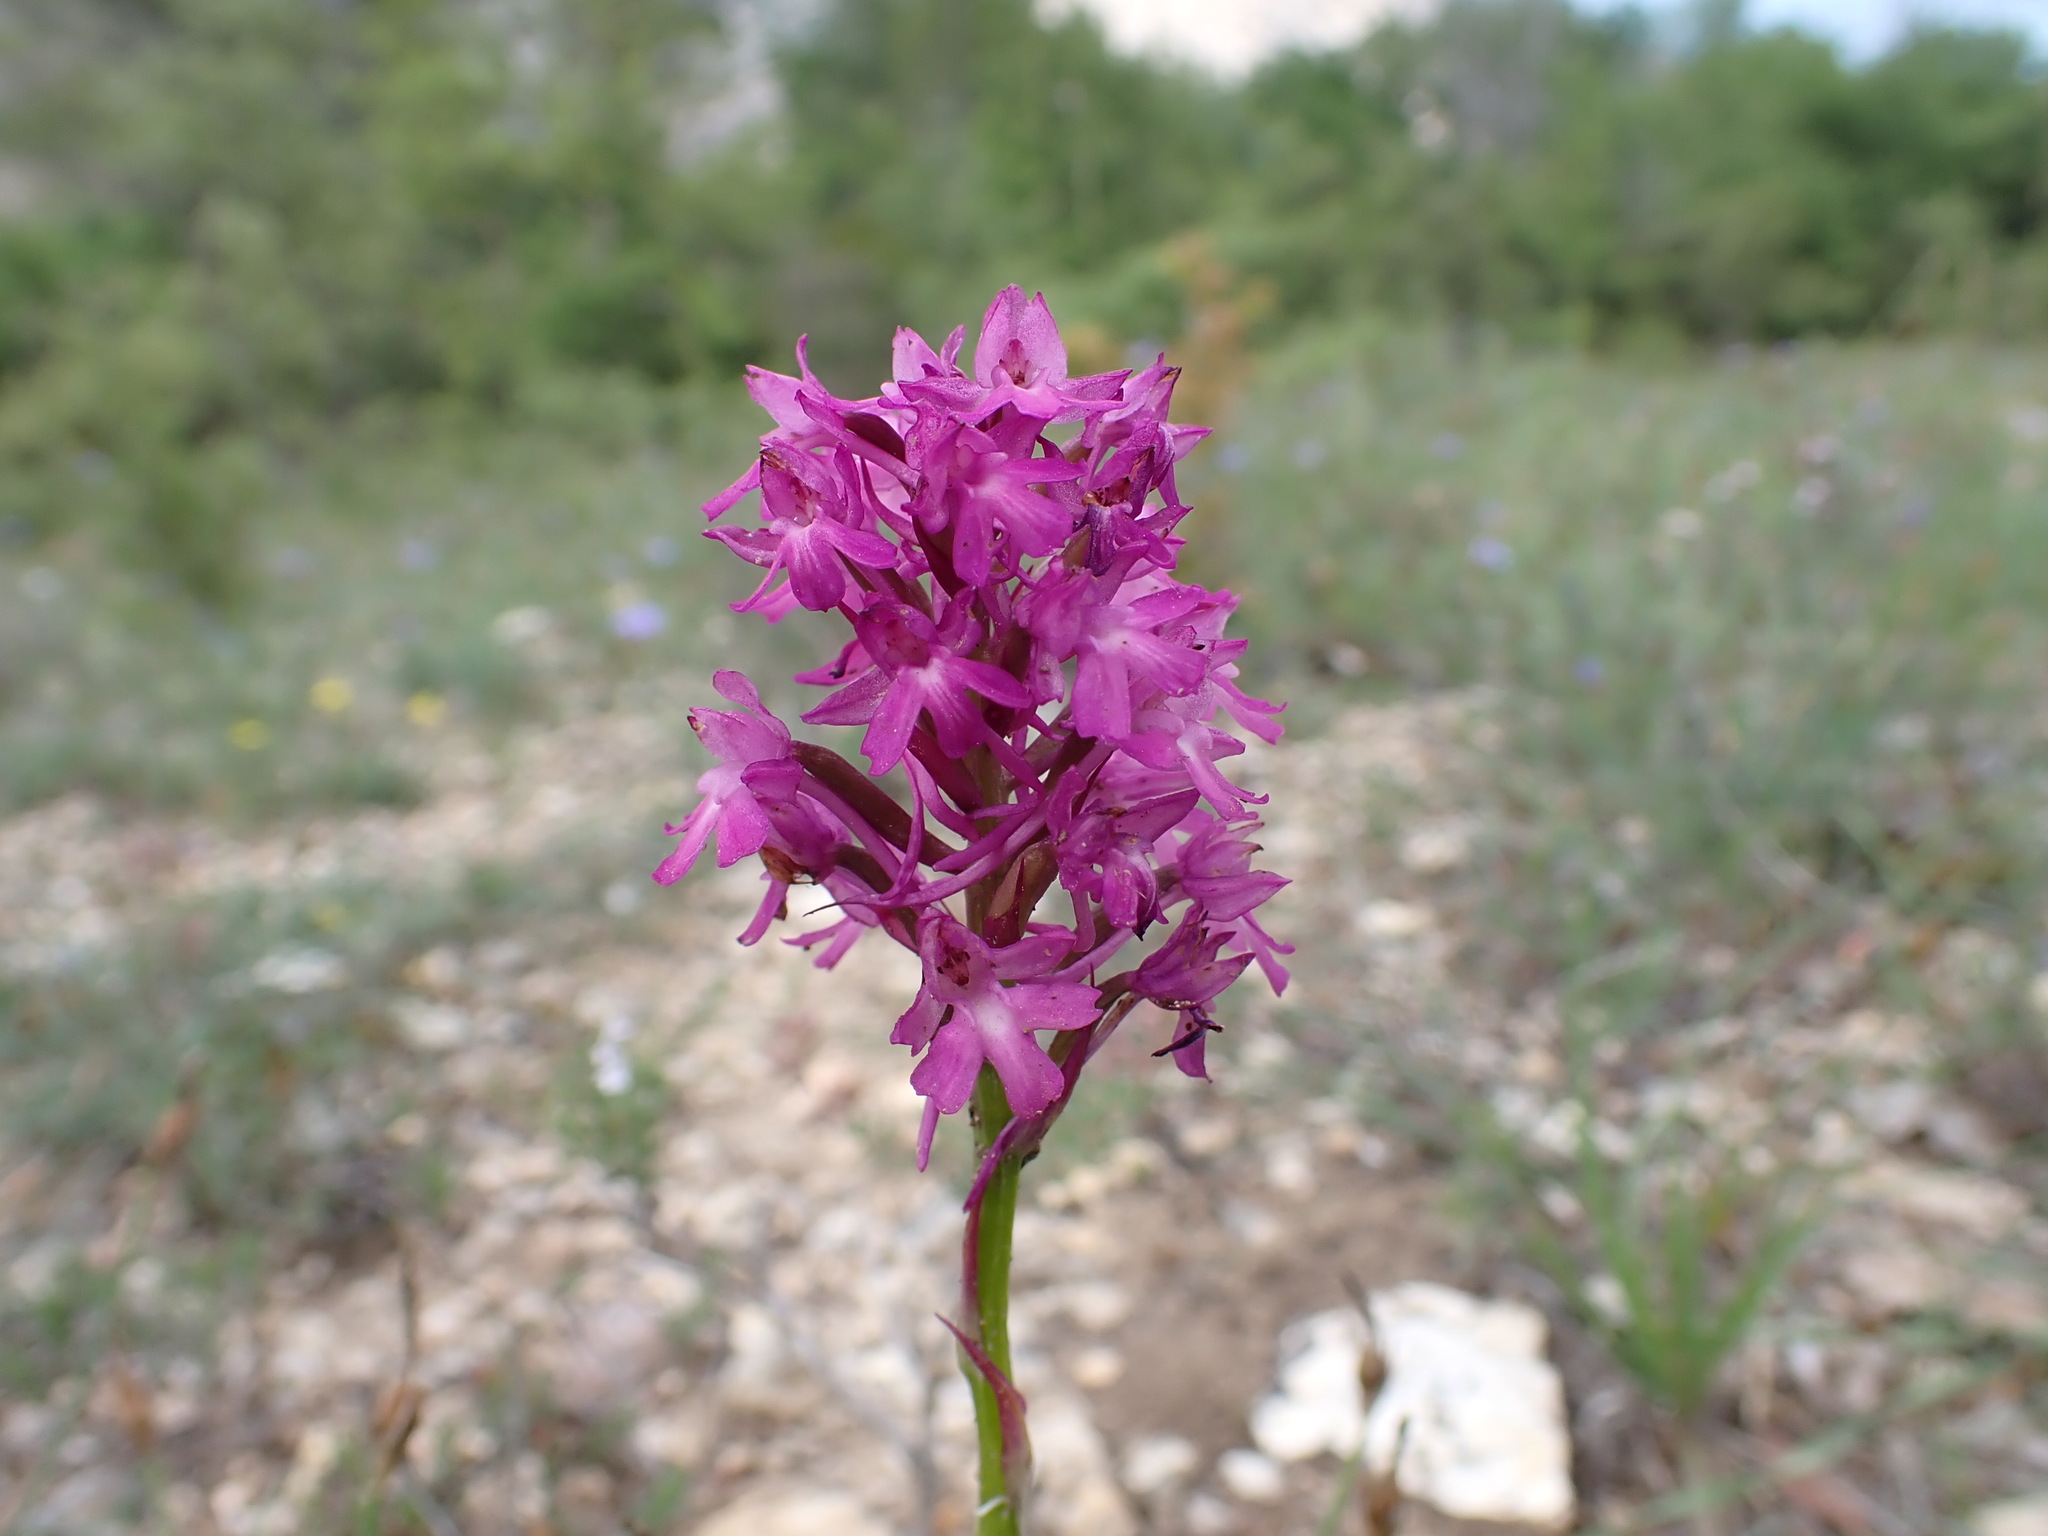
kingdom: Plantae
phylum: Tracheophyta
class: Liliopsida
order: Asparagales
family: Orchidaceae
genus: Anacamptis
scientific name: Anacamptis pyramidalis
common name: Pyramidal orchid
